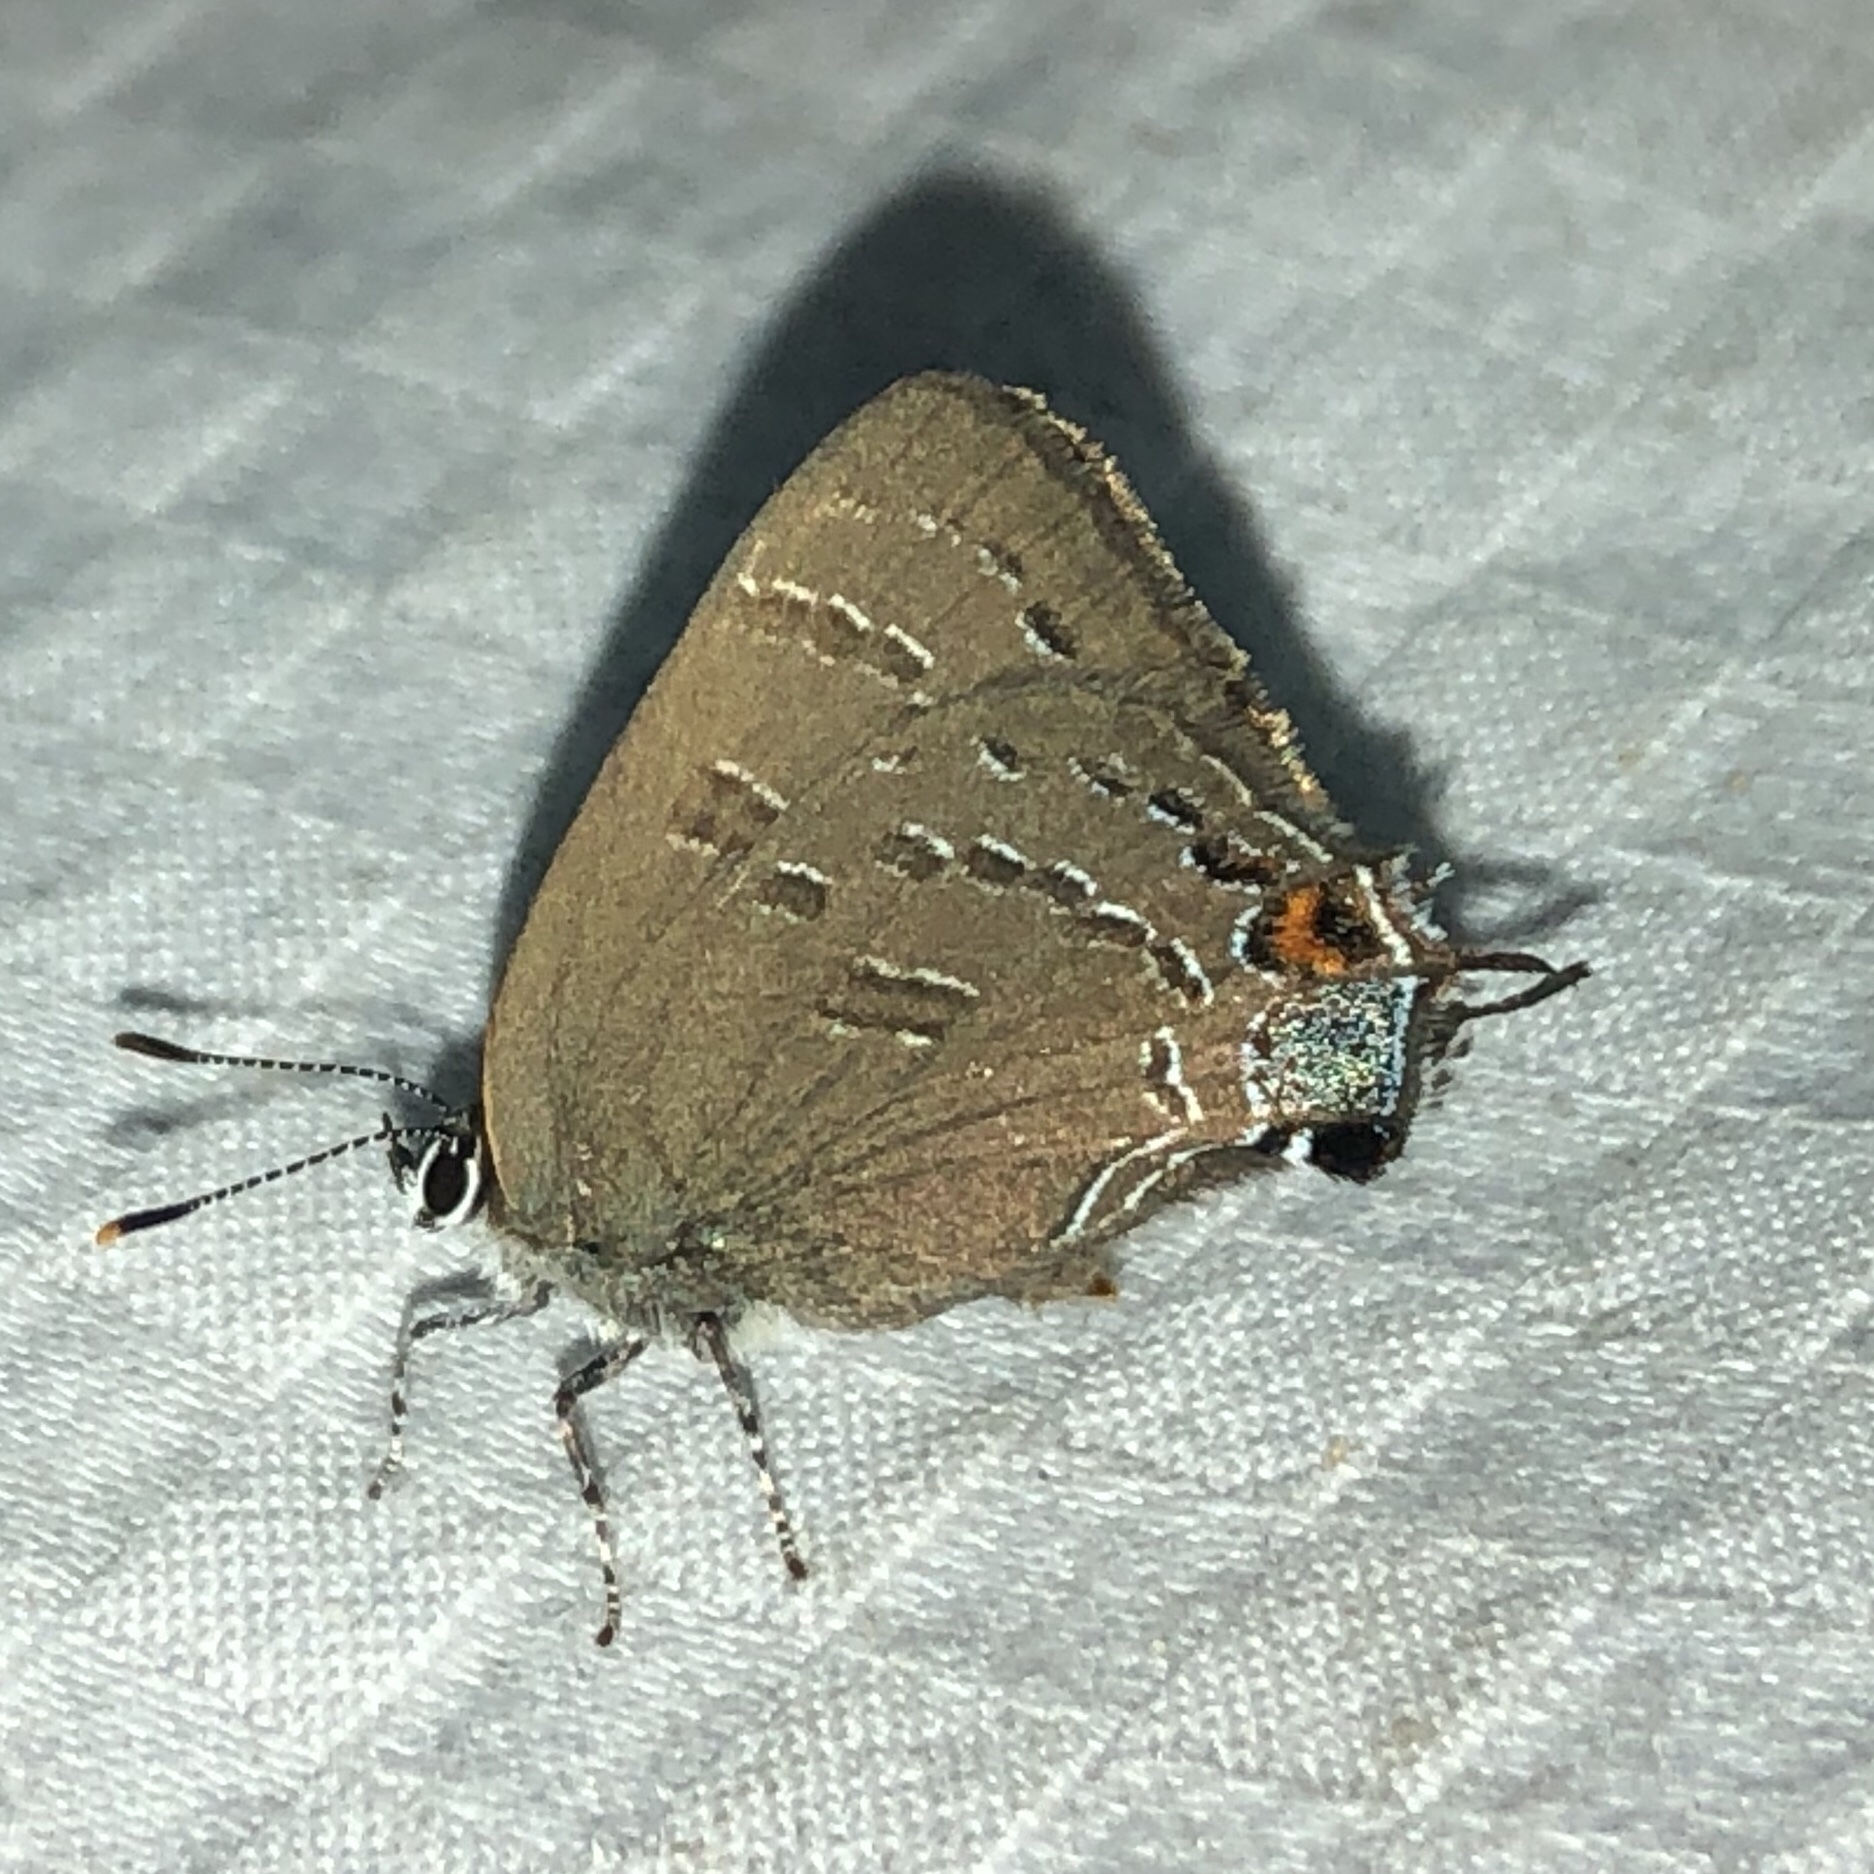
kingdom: Animalia
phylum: Arthropoda
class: Insecta
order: Lepidoptera
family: Lycaenidae
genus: Satyrium
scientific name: Satyrium calanus
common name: Banded hairstreak
